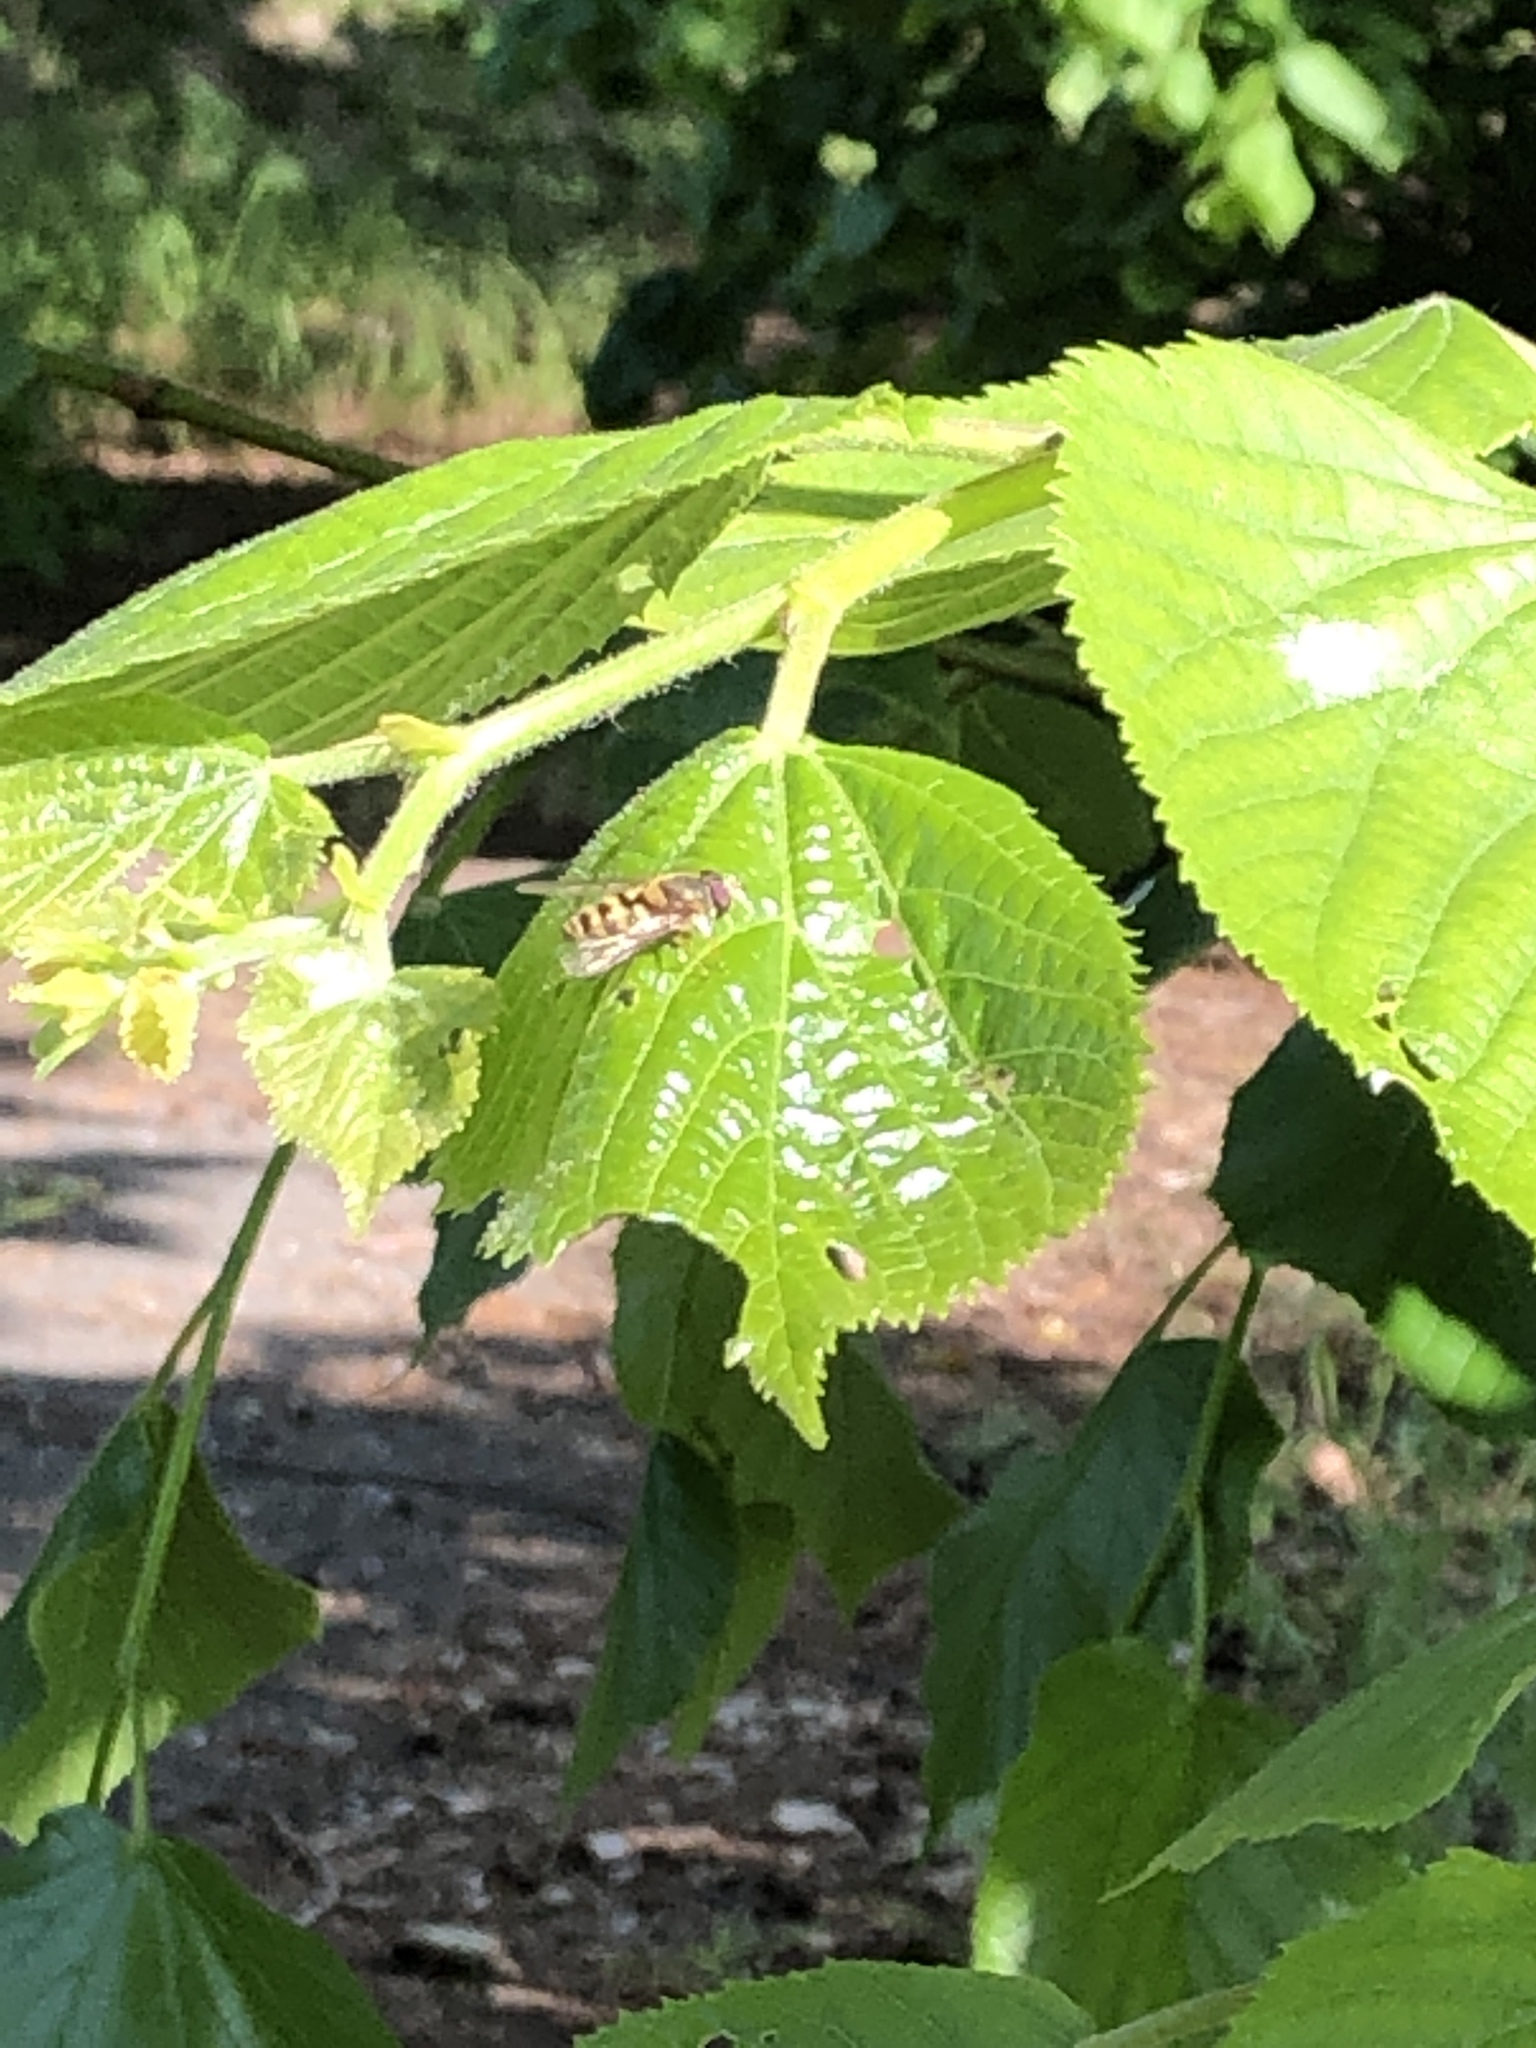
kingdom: Animalia
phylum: Arthropoda
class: Insecta
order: Diptera
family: Syrphidae
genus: Syrphus
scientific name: Syrphus
